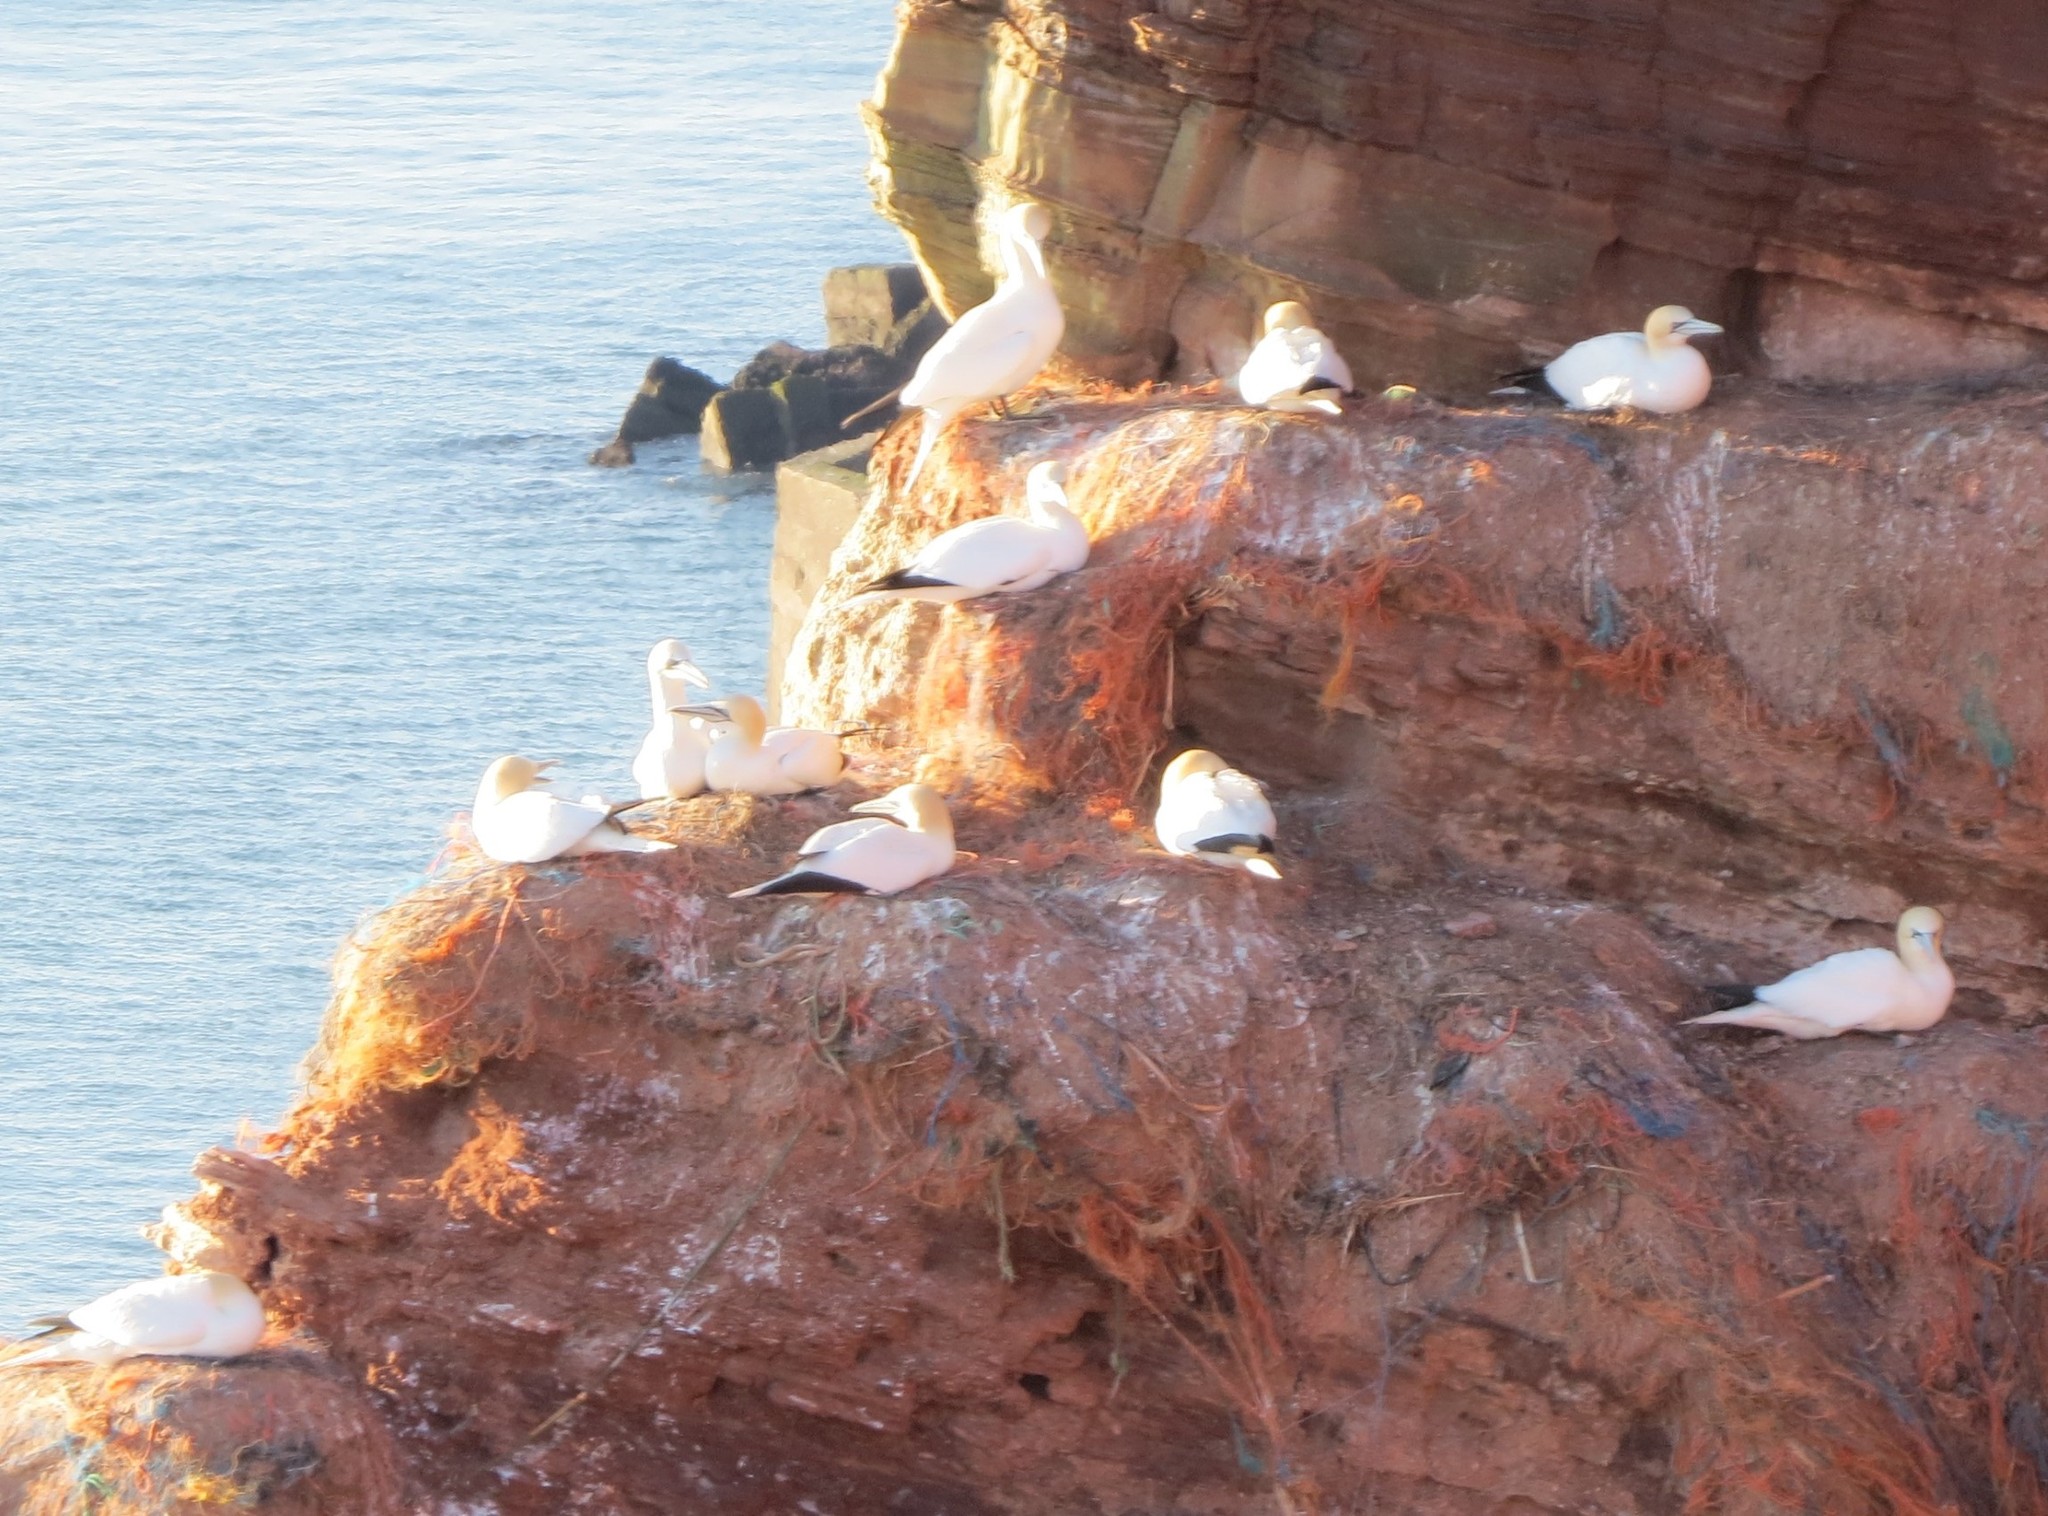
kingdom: Animalia
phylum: Chordata
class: Aves
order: Suliformes
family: Sulidae
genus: Morus
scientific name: Morus bassanus
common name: Northern gannet
